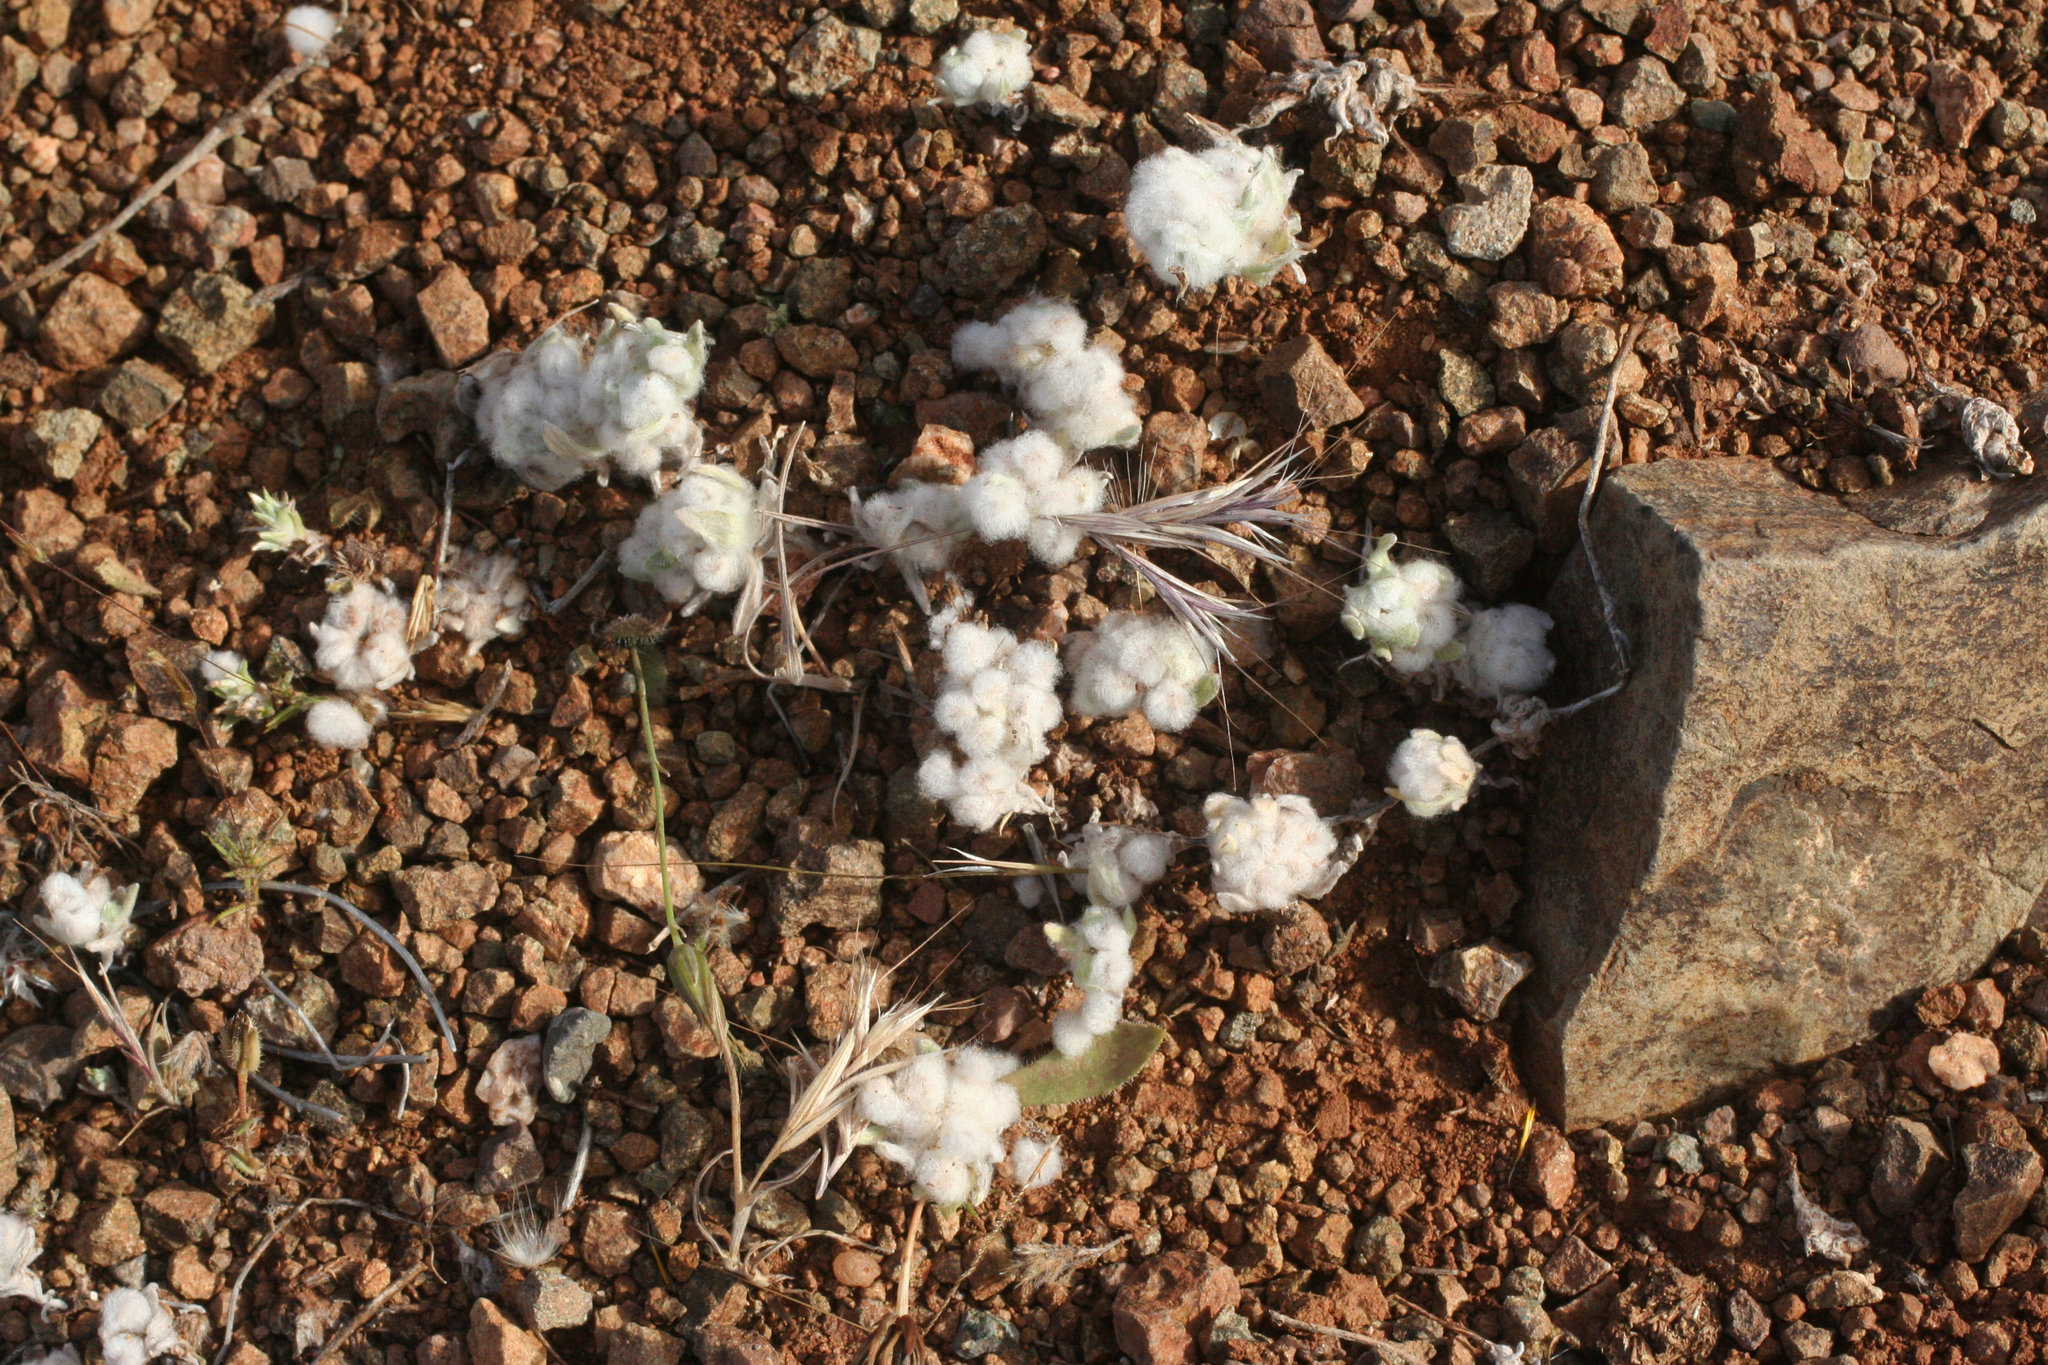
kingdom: Plantae
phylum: Tracheophyta
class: Magnoliopsida
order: Asterales
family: Asteraceae
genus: Bombycilaena
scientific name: Bombycilaena discolor
